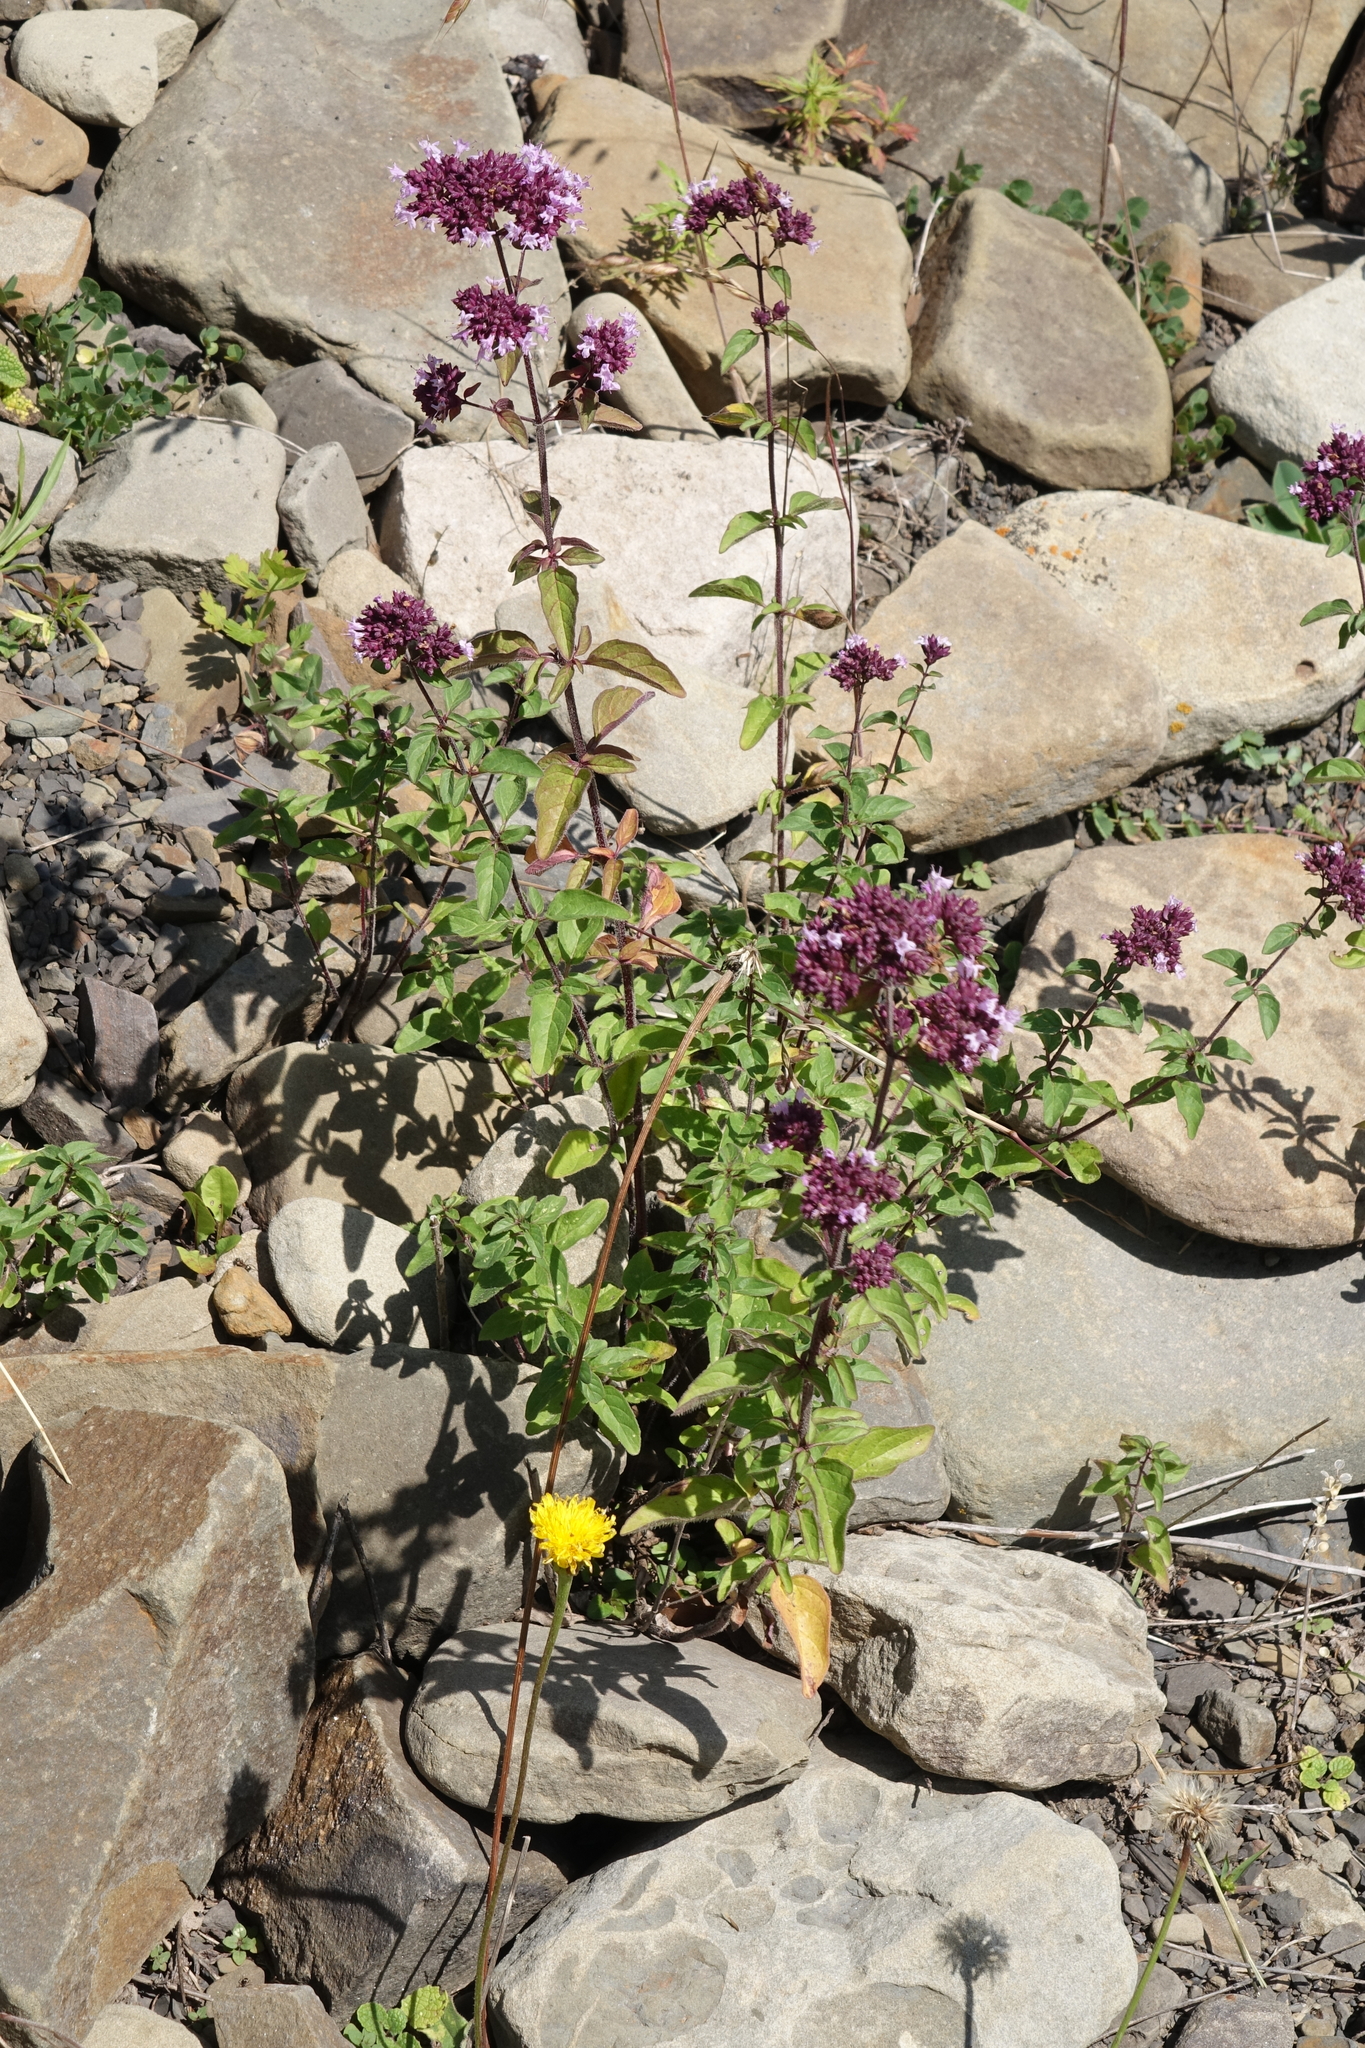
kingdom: Plantae
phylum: Tracheophyta
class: Magnoliopsida
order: Lamiales
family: Lamiaceae
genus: Origanum
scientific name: Origanum vulgare
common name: Wild marjoram
